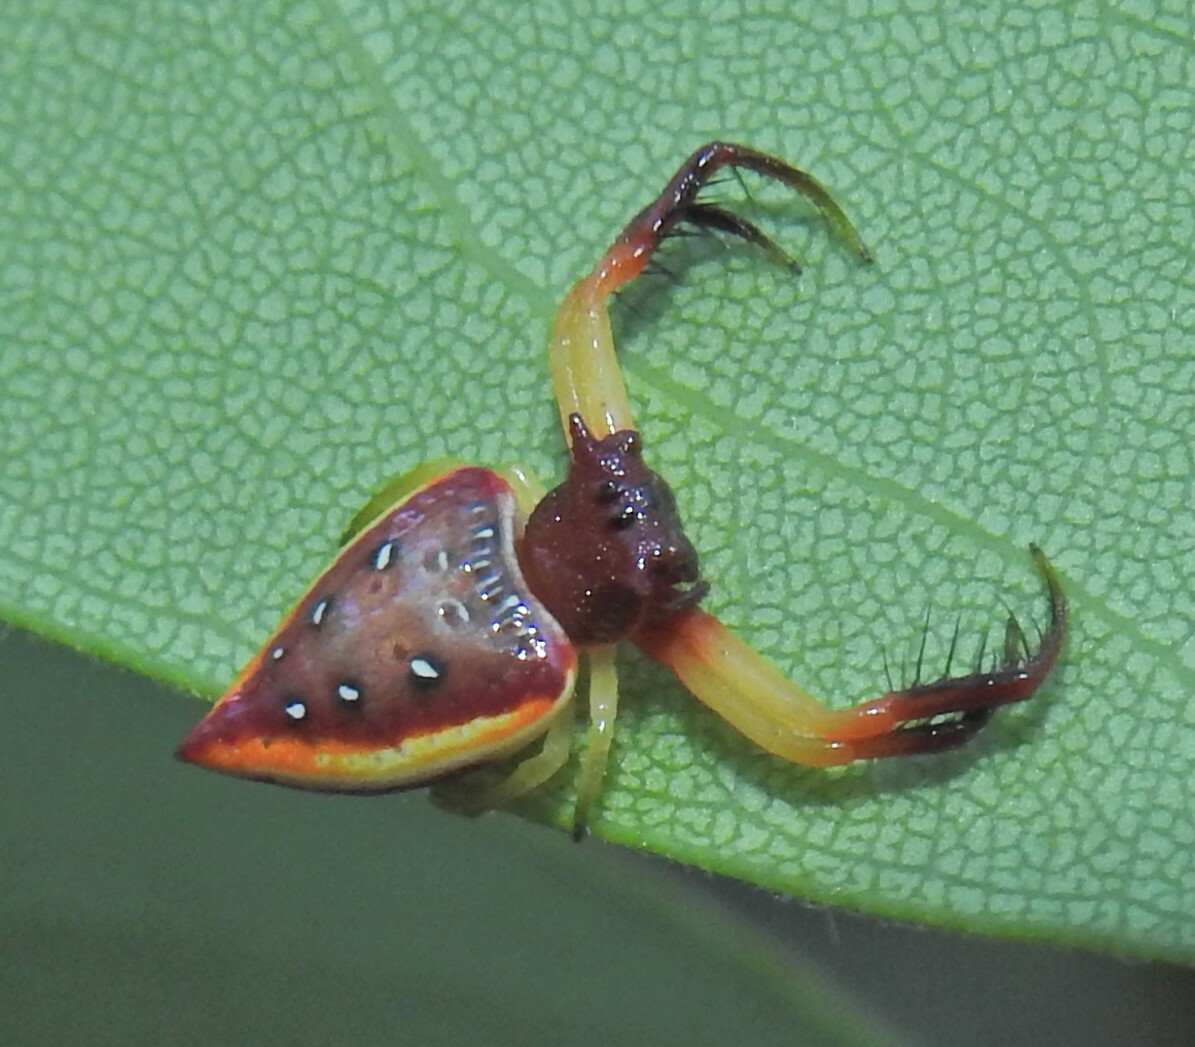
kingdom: Animalia
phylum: Arthropoda
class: Arachnida
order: Araneae
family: Arkyidae
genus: Arkys
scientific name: Arkys cornutus
